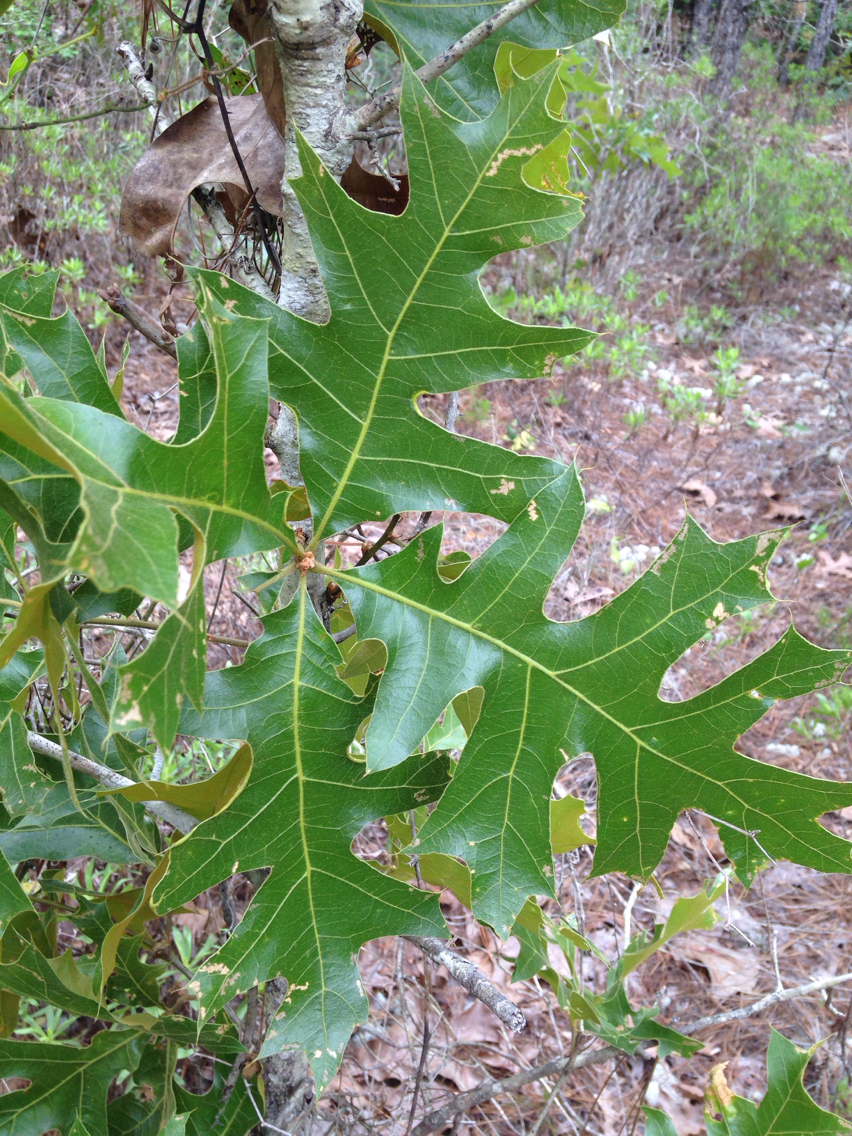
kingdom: Plantae
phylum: Tracheophyta
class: Magnoliopsida
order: Fagales
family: Fagaceae
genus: Quercus
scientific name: Quercus laevis
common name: Turkey oak
